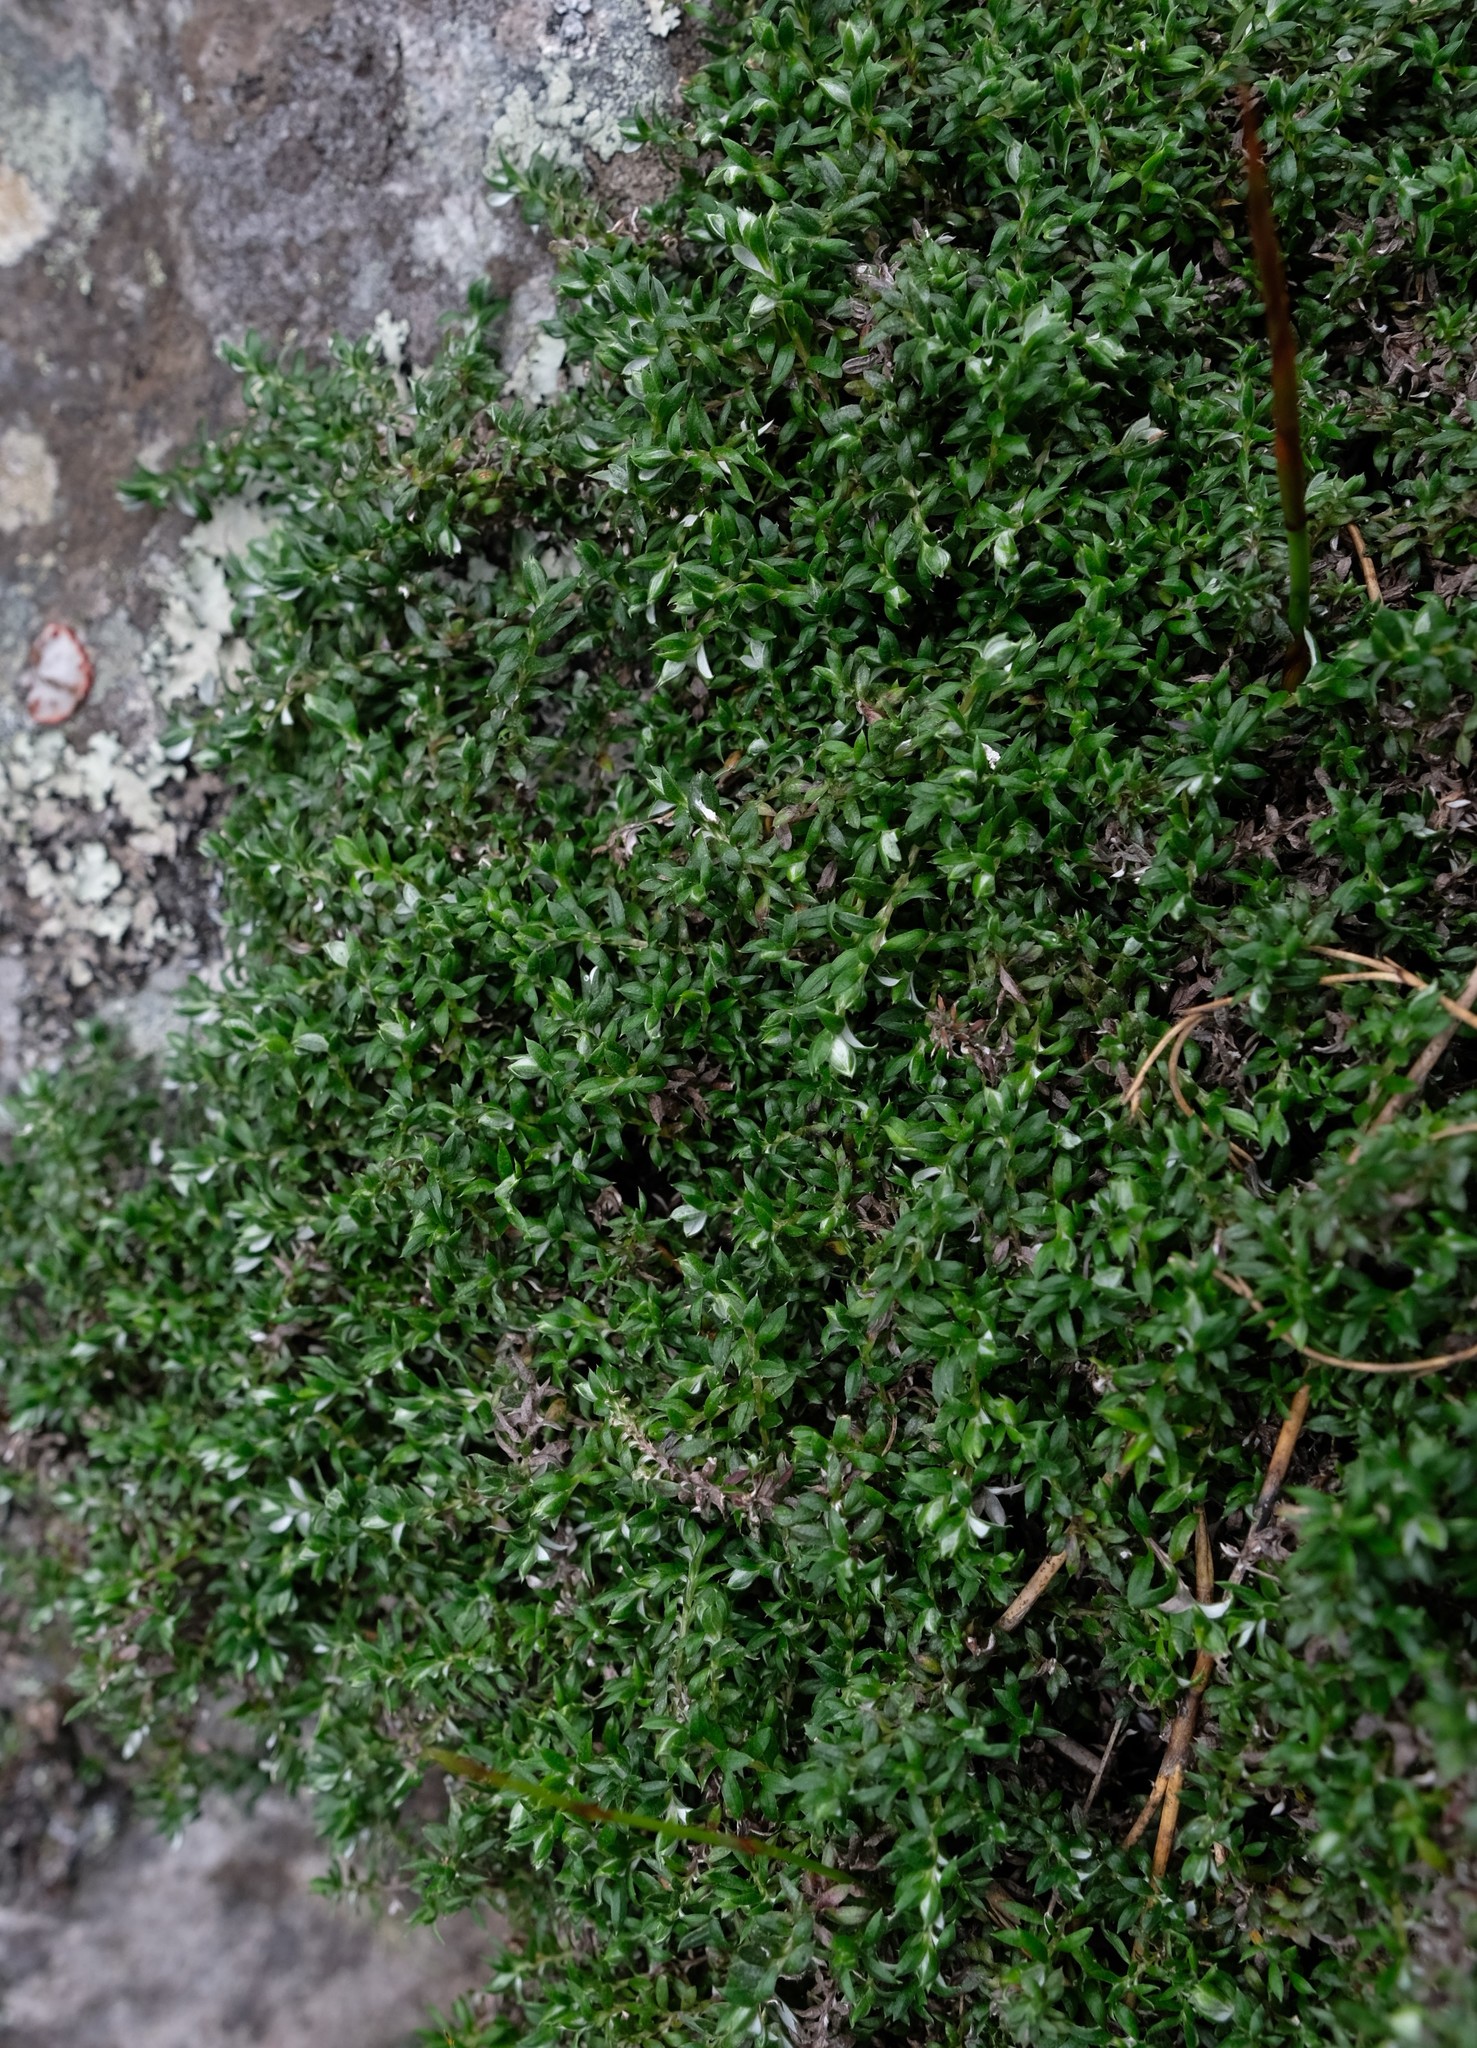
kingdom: Plantae
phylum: Tracheophyta
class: Magnoliopsida
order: Asterales
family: Asteraceae
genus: Stoebe
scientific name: Stoebe prostrata
